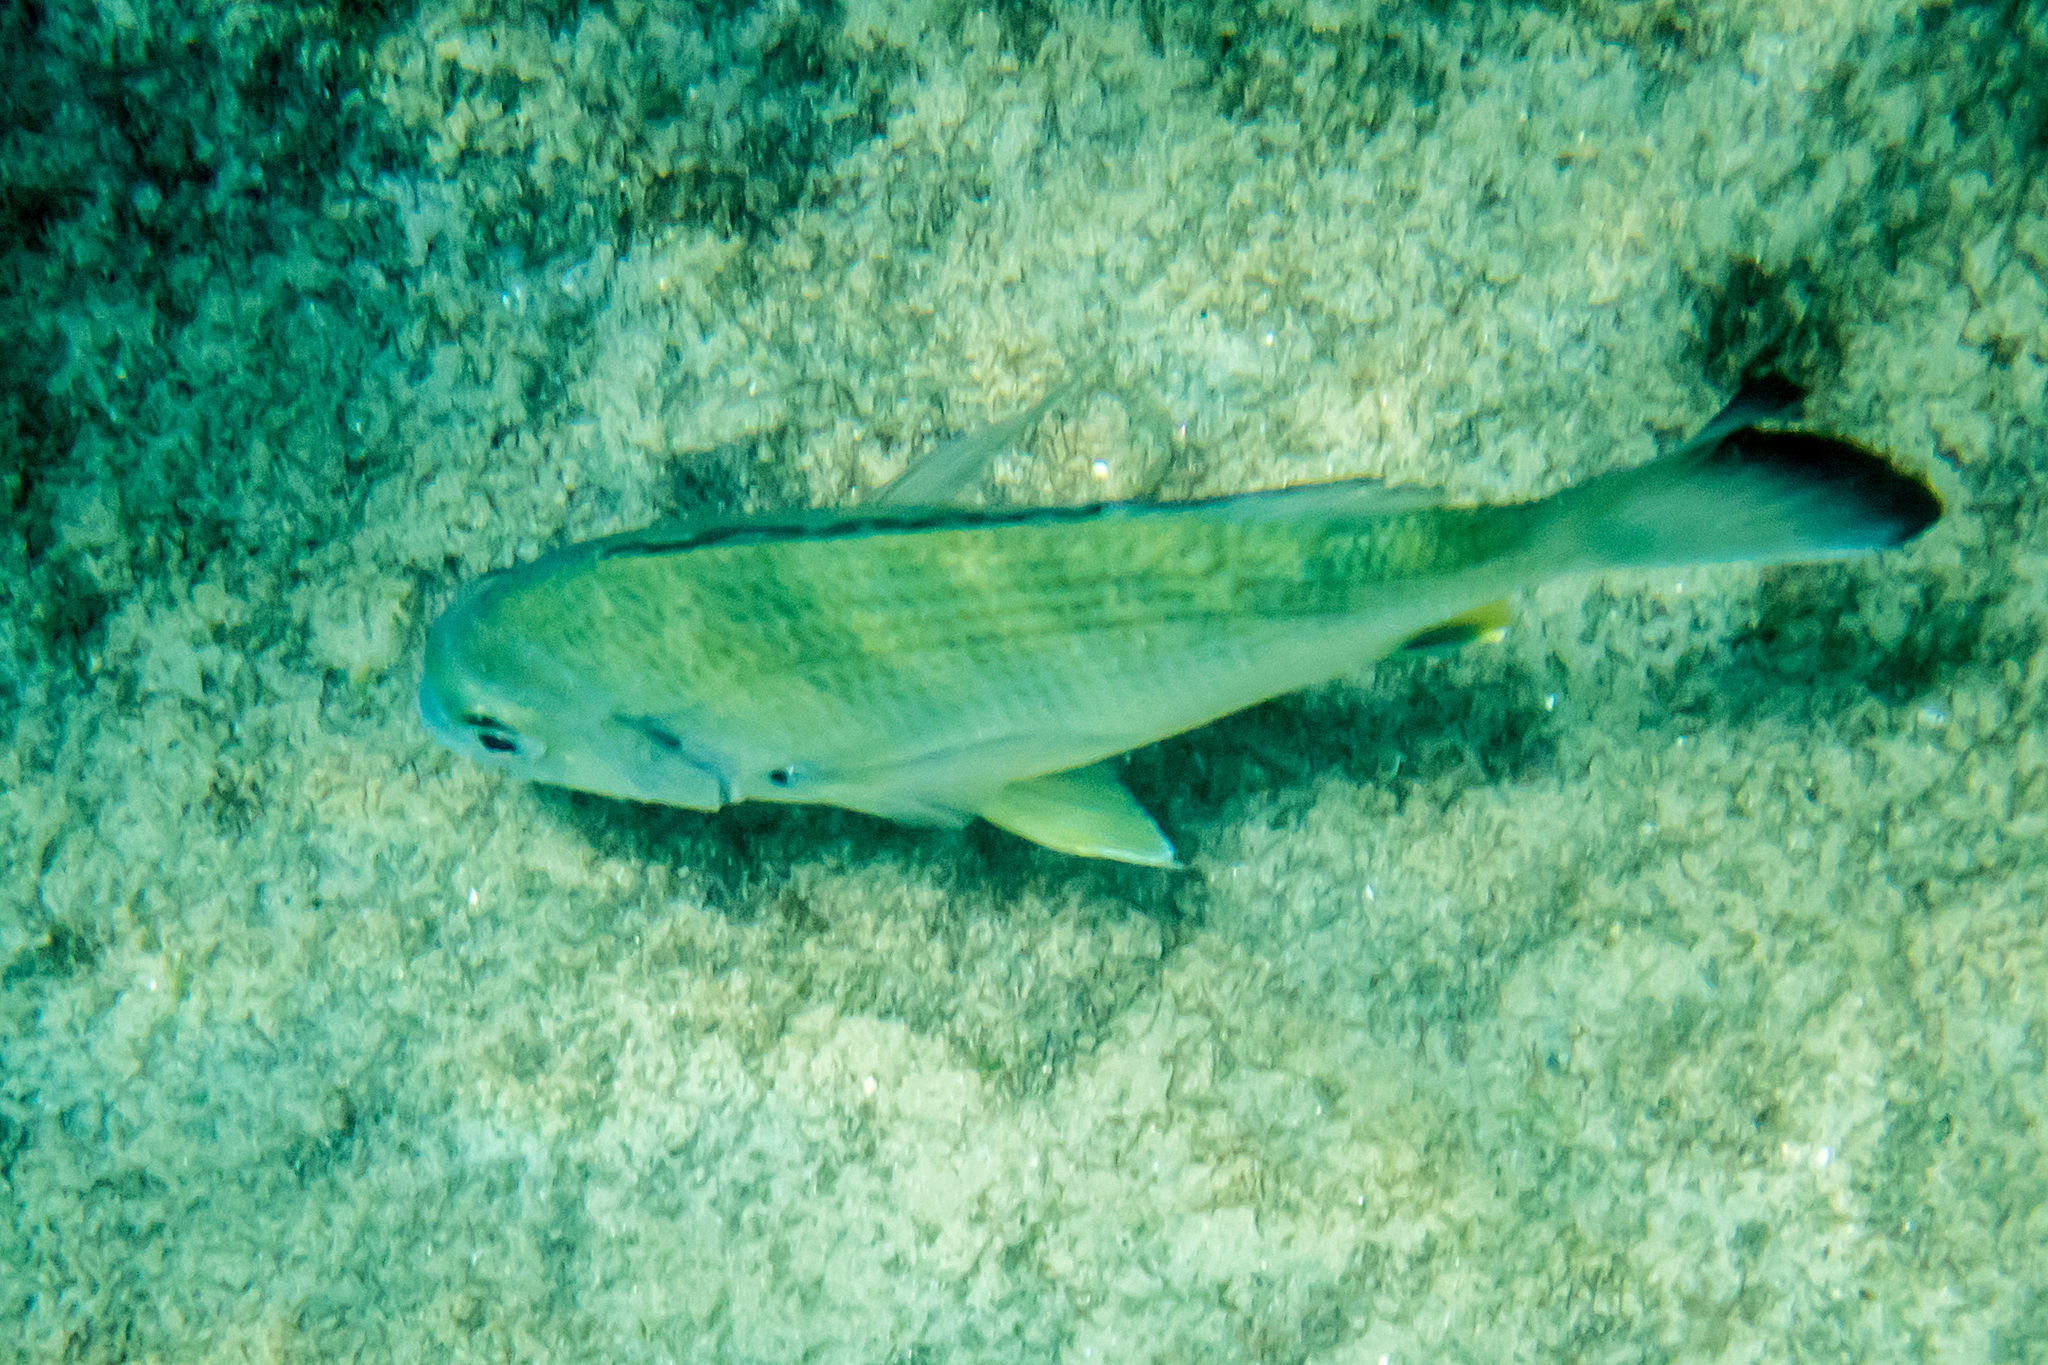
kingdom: Animalia
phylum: Chordata
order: Perciformes
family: Sparidae
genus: Acanthopagrus
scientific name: Acanthopagrus australis
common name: Surf bream
